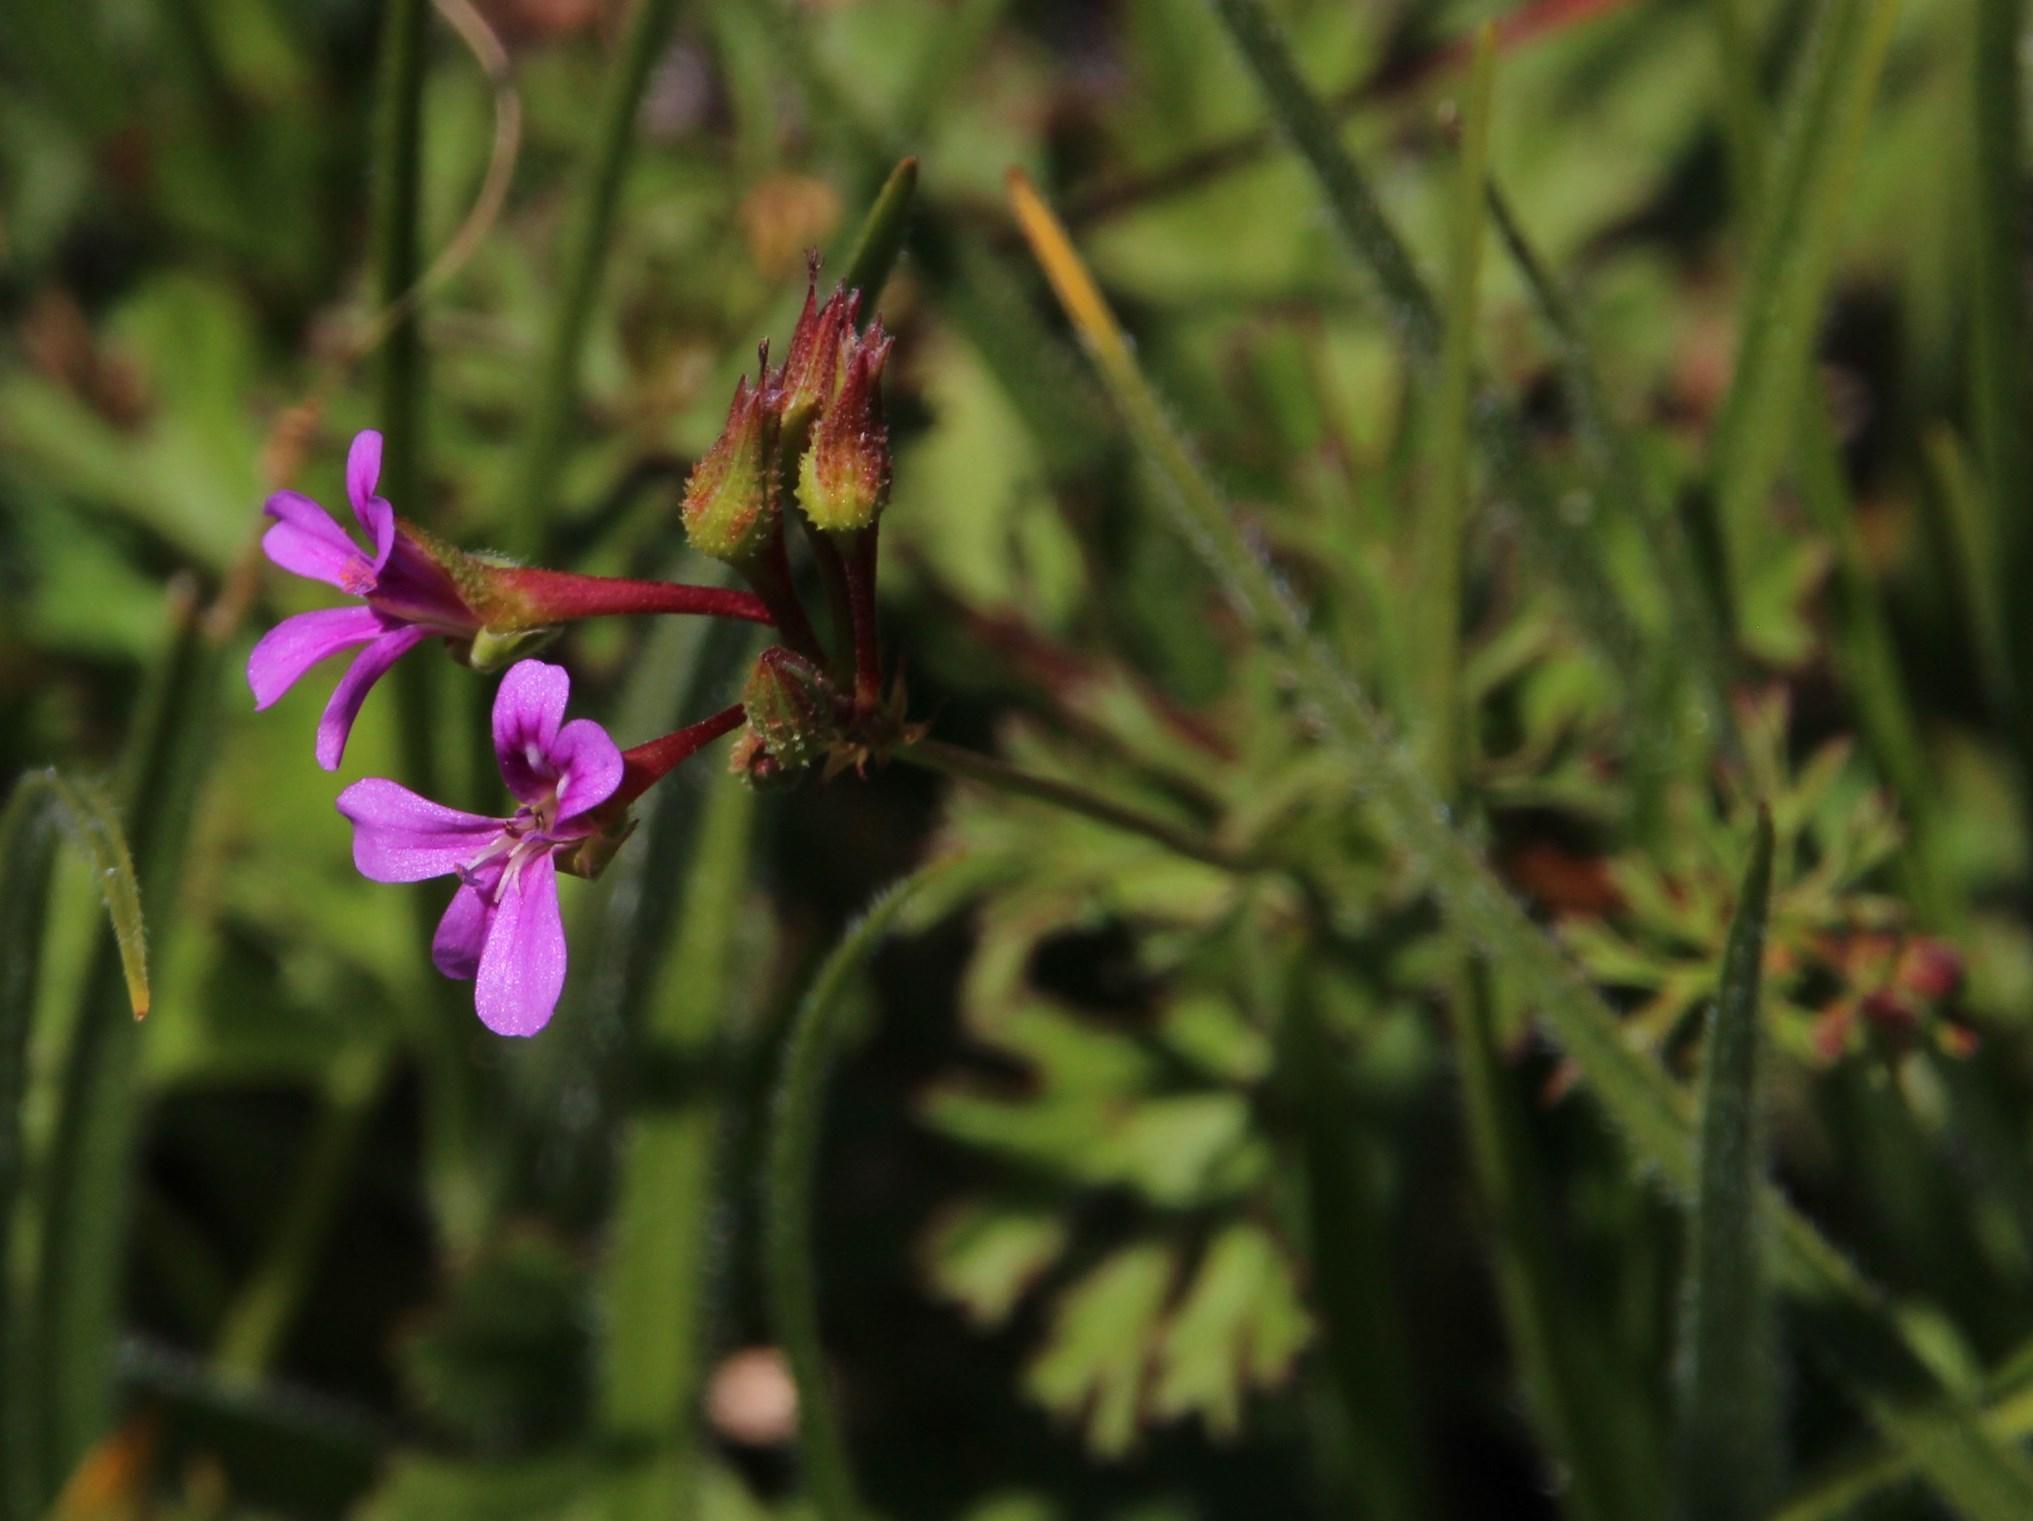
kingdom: Plantae
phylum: Tracheophyta
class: Magnoliopsida
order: Geraniales
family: Geraniaceae
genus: Pelargonium
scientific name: Pelargonium grossularioides
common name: Gooseberry geranium
